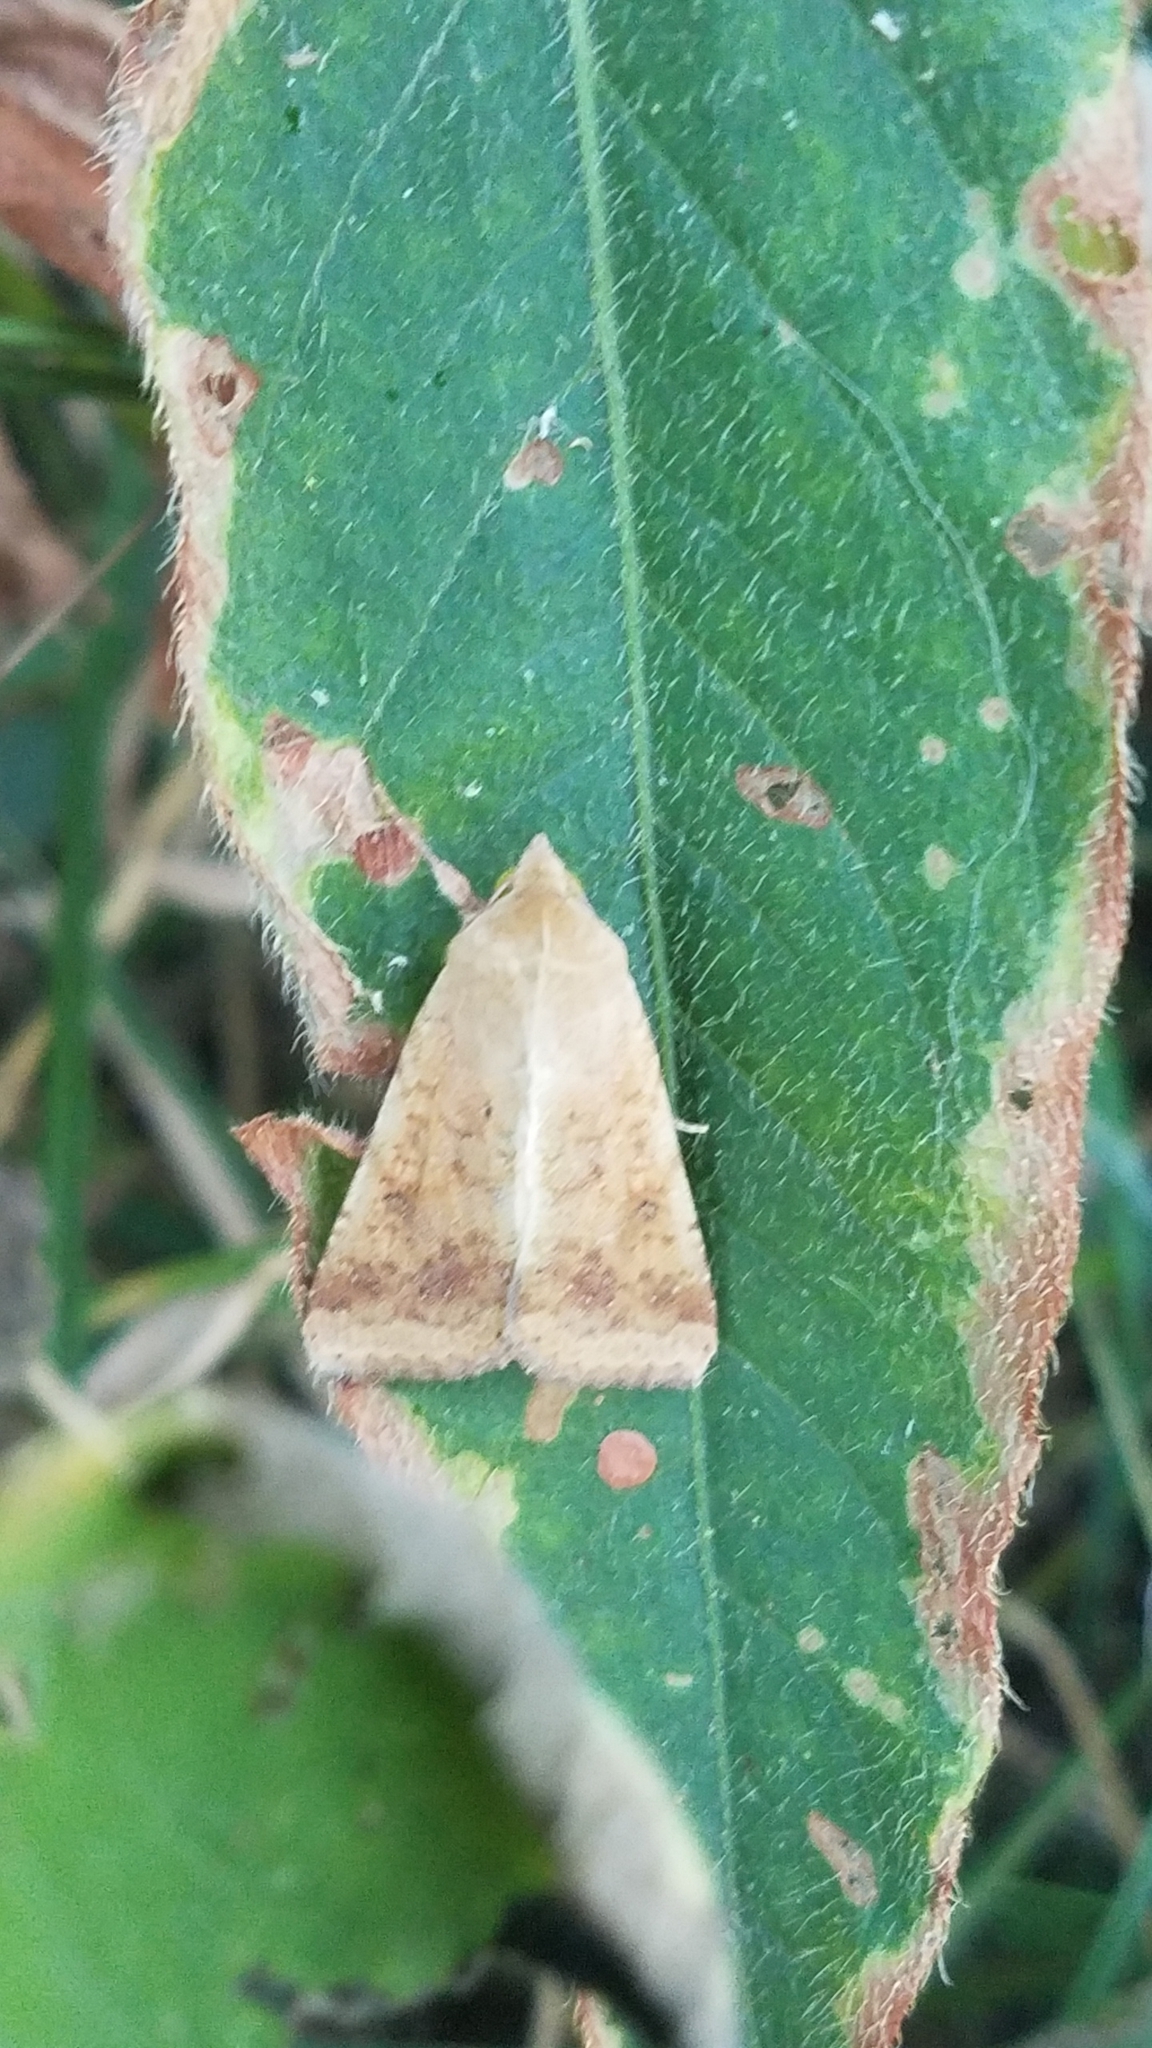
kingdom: Animalia
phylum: Arthropoda
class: Insecta
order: Lepidoptera
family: Noctuidae
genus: Helicoverpa
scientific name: Helicoverpa zea
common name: Bollworm
